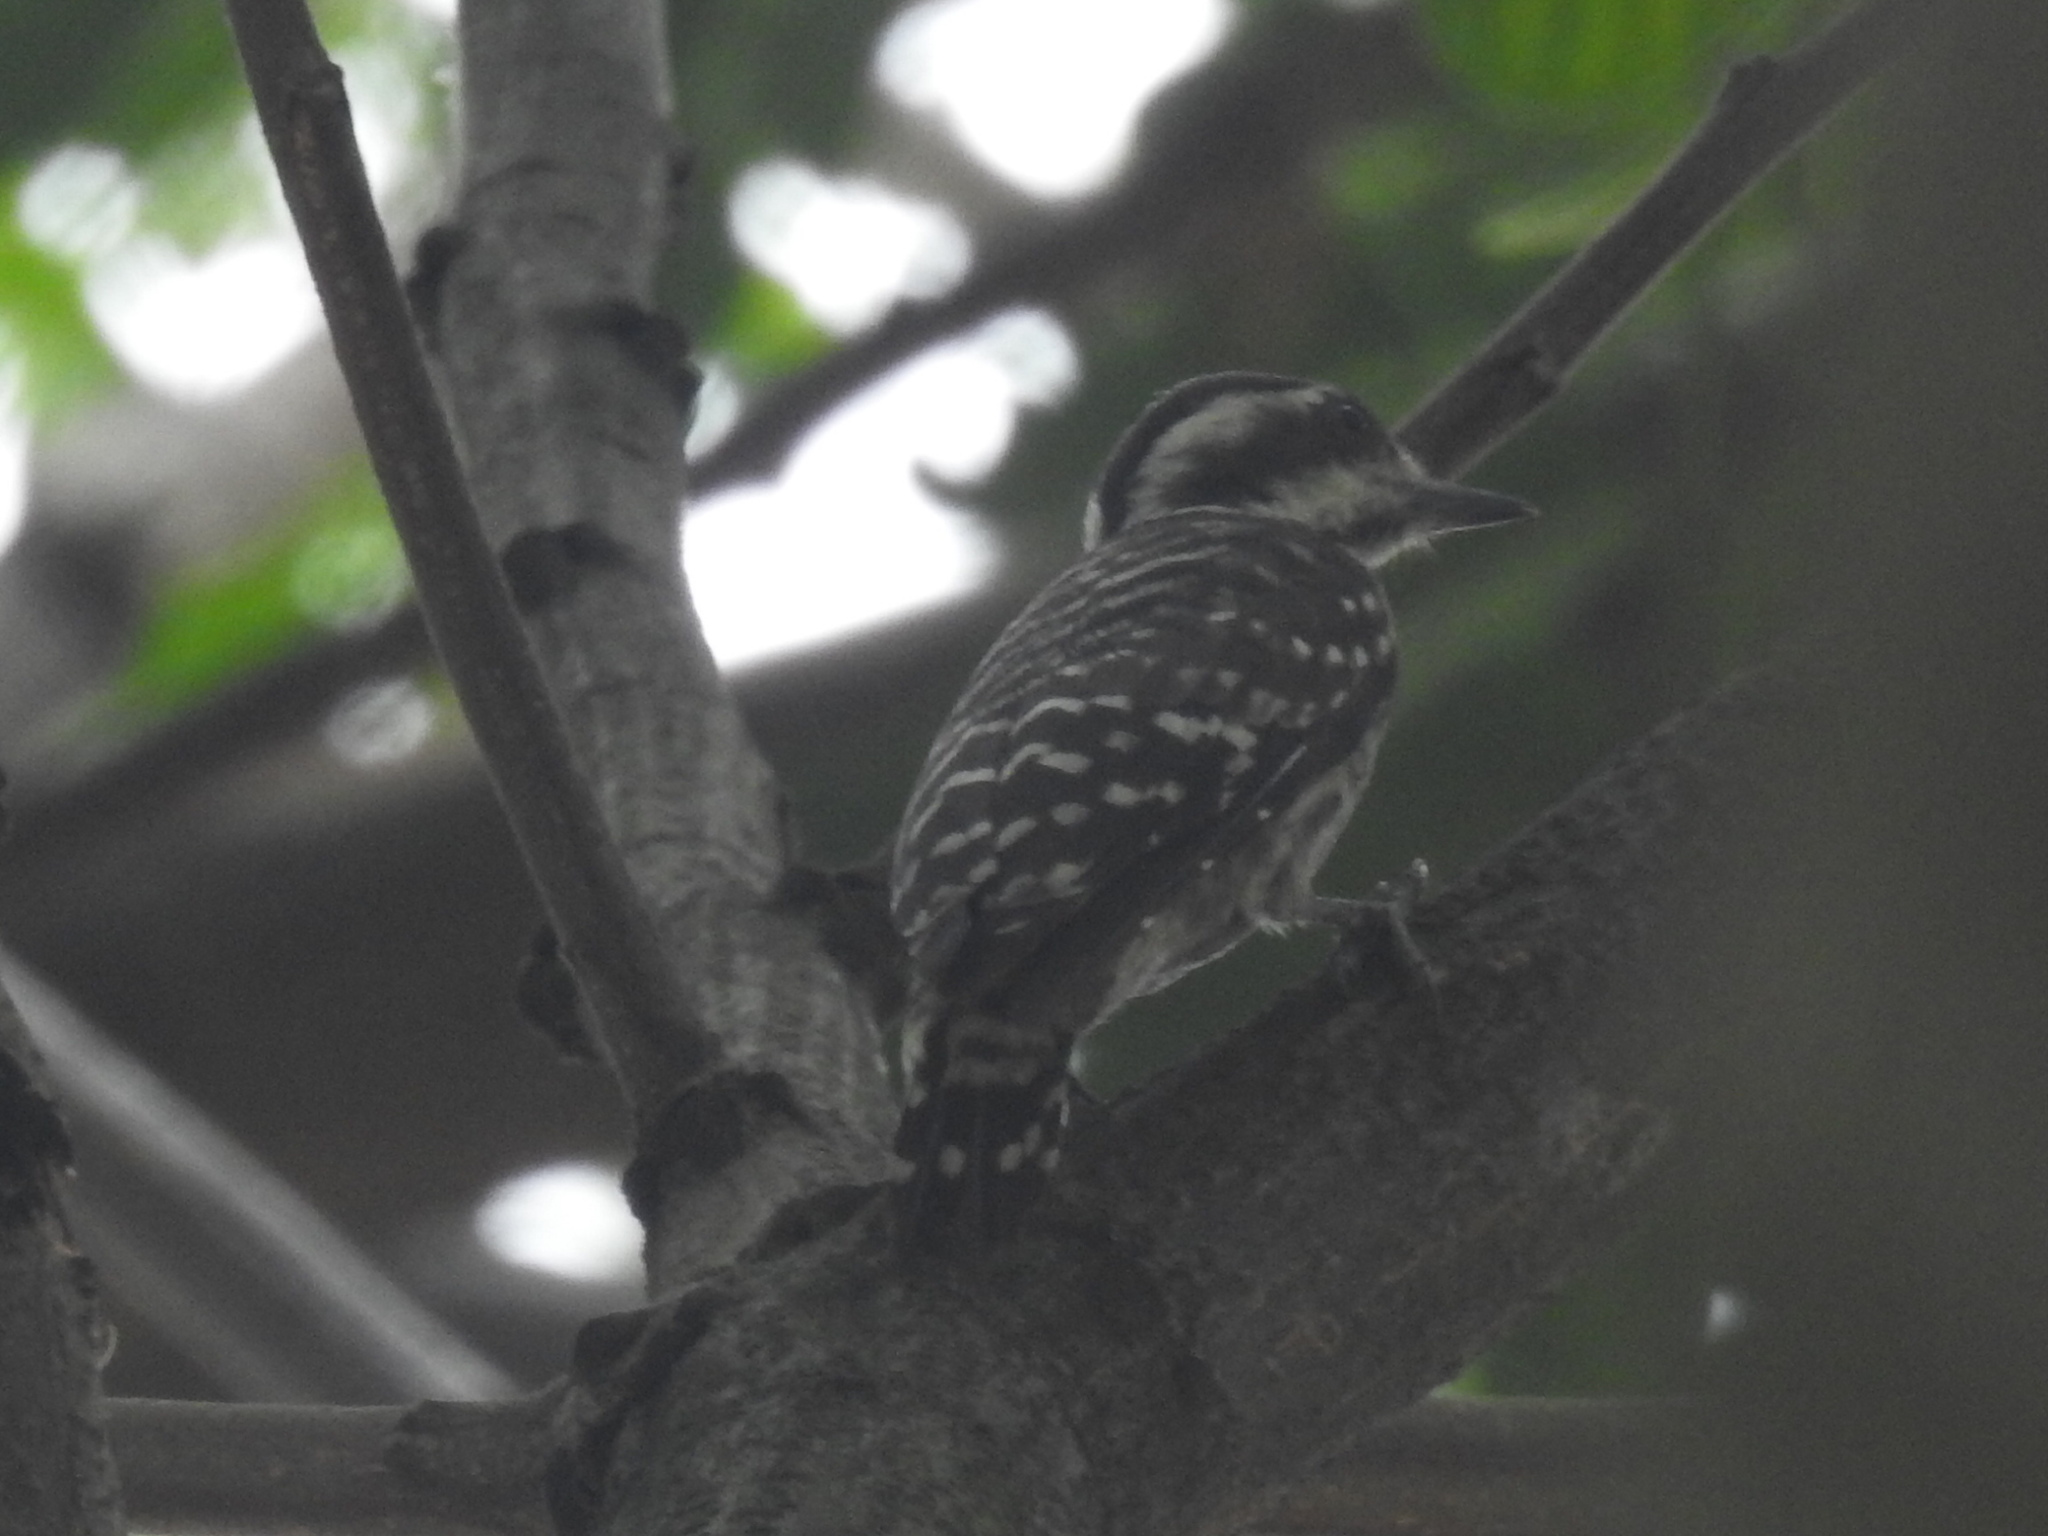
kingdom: Animalia
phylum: Chordata
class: Aves
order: Piciformes
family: Picidae
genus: Yungipicus
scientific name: Yungipicus moluccensis
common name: Sunda pygmy woodpecker
